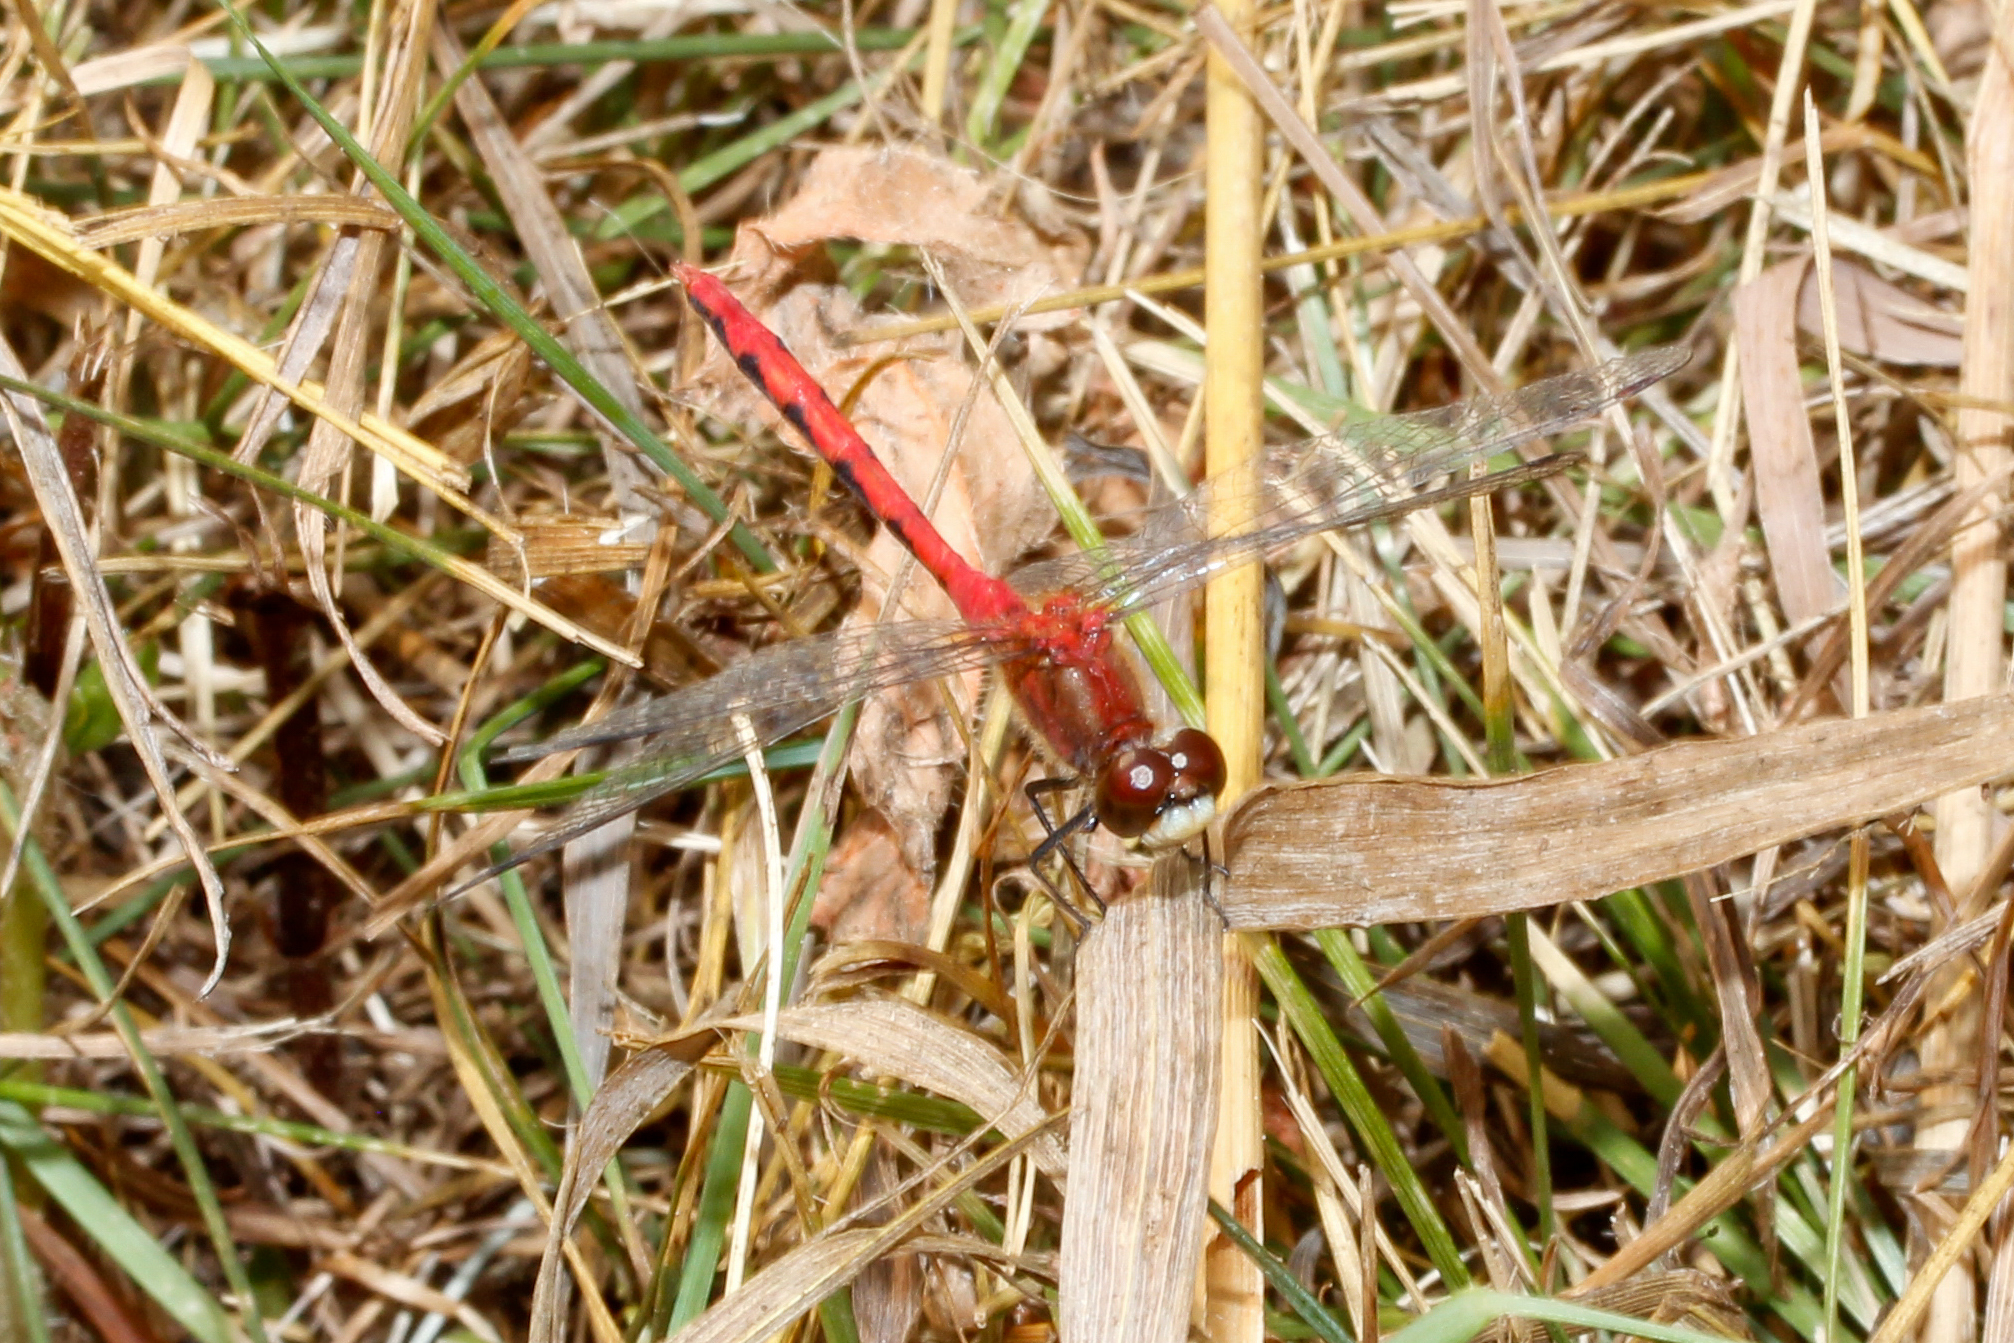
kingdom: Animalia
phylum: Arthropoda
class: Insecta
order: Odonata
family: Libellulidae
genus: Sympetrum
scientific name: Sympetrum obtrusum
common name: White-faced meadowhawk
